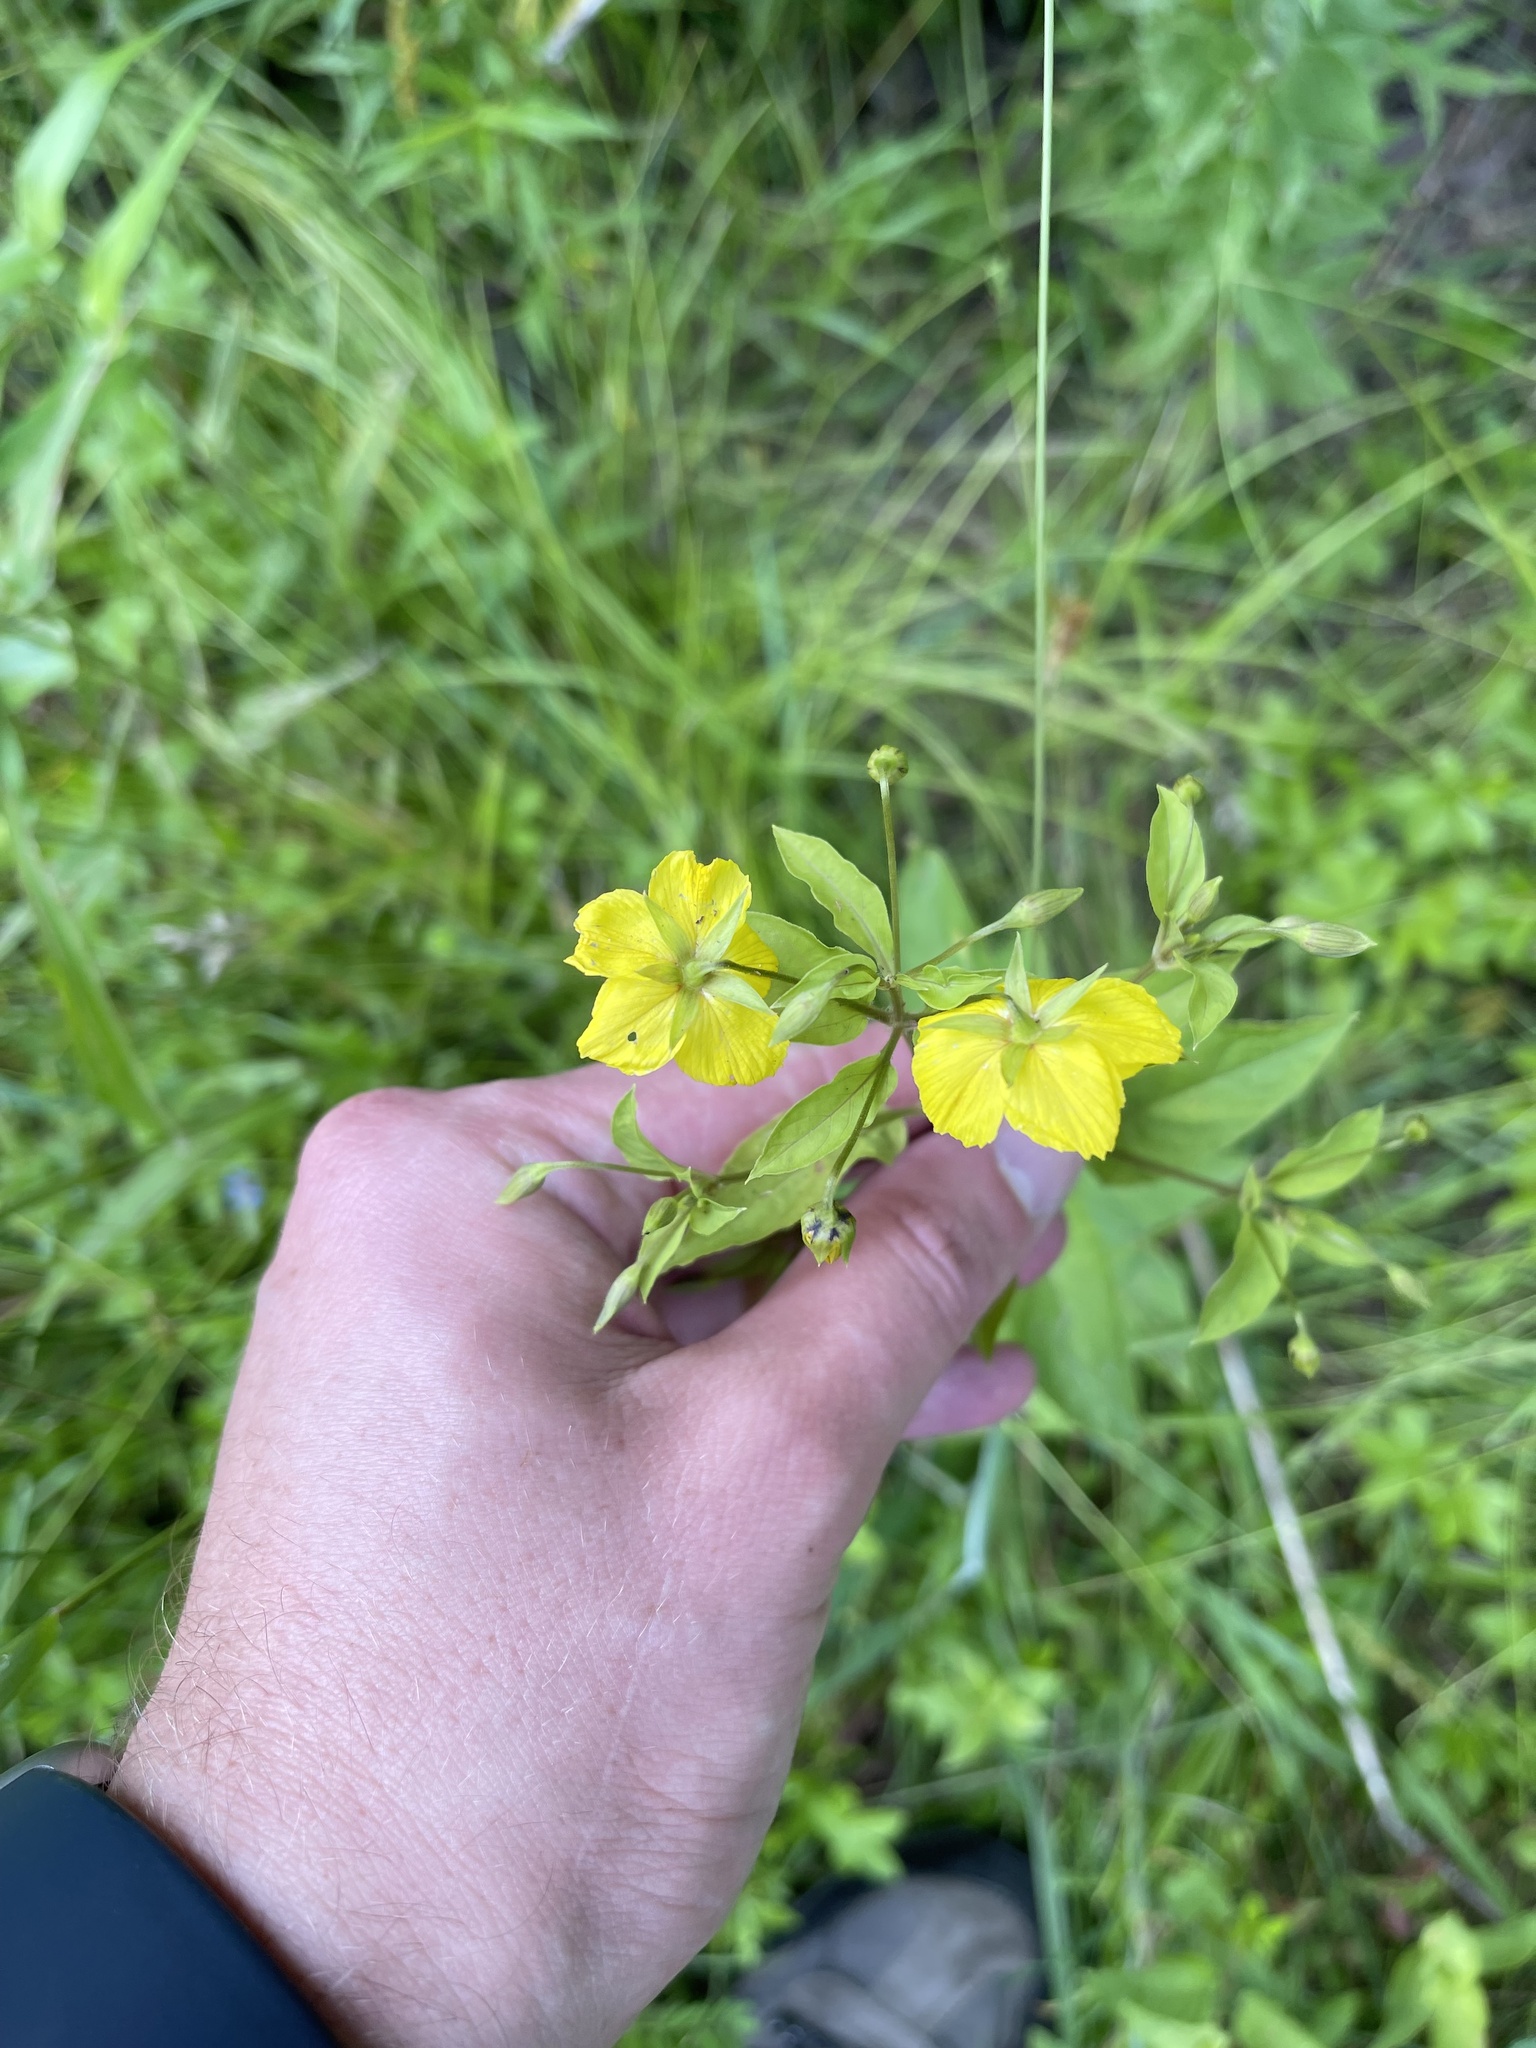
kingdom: Plantae
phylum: Tracheophyta
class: Magnoliopsida
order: Ericales
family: Primulaceae
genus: Lysimachia
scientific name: Lysimachia ciliata
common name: Fringed loosestrife
